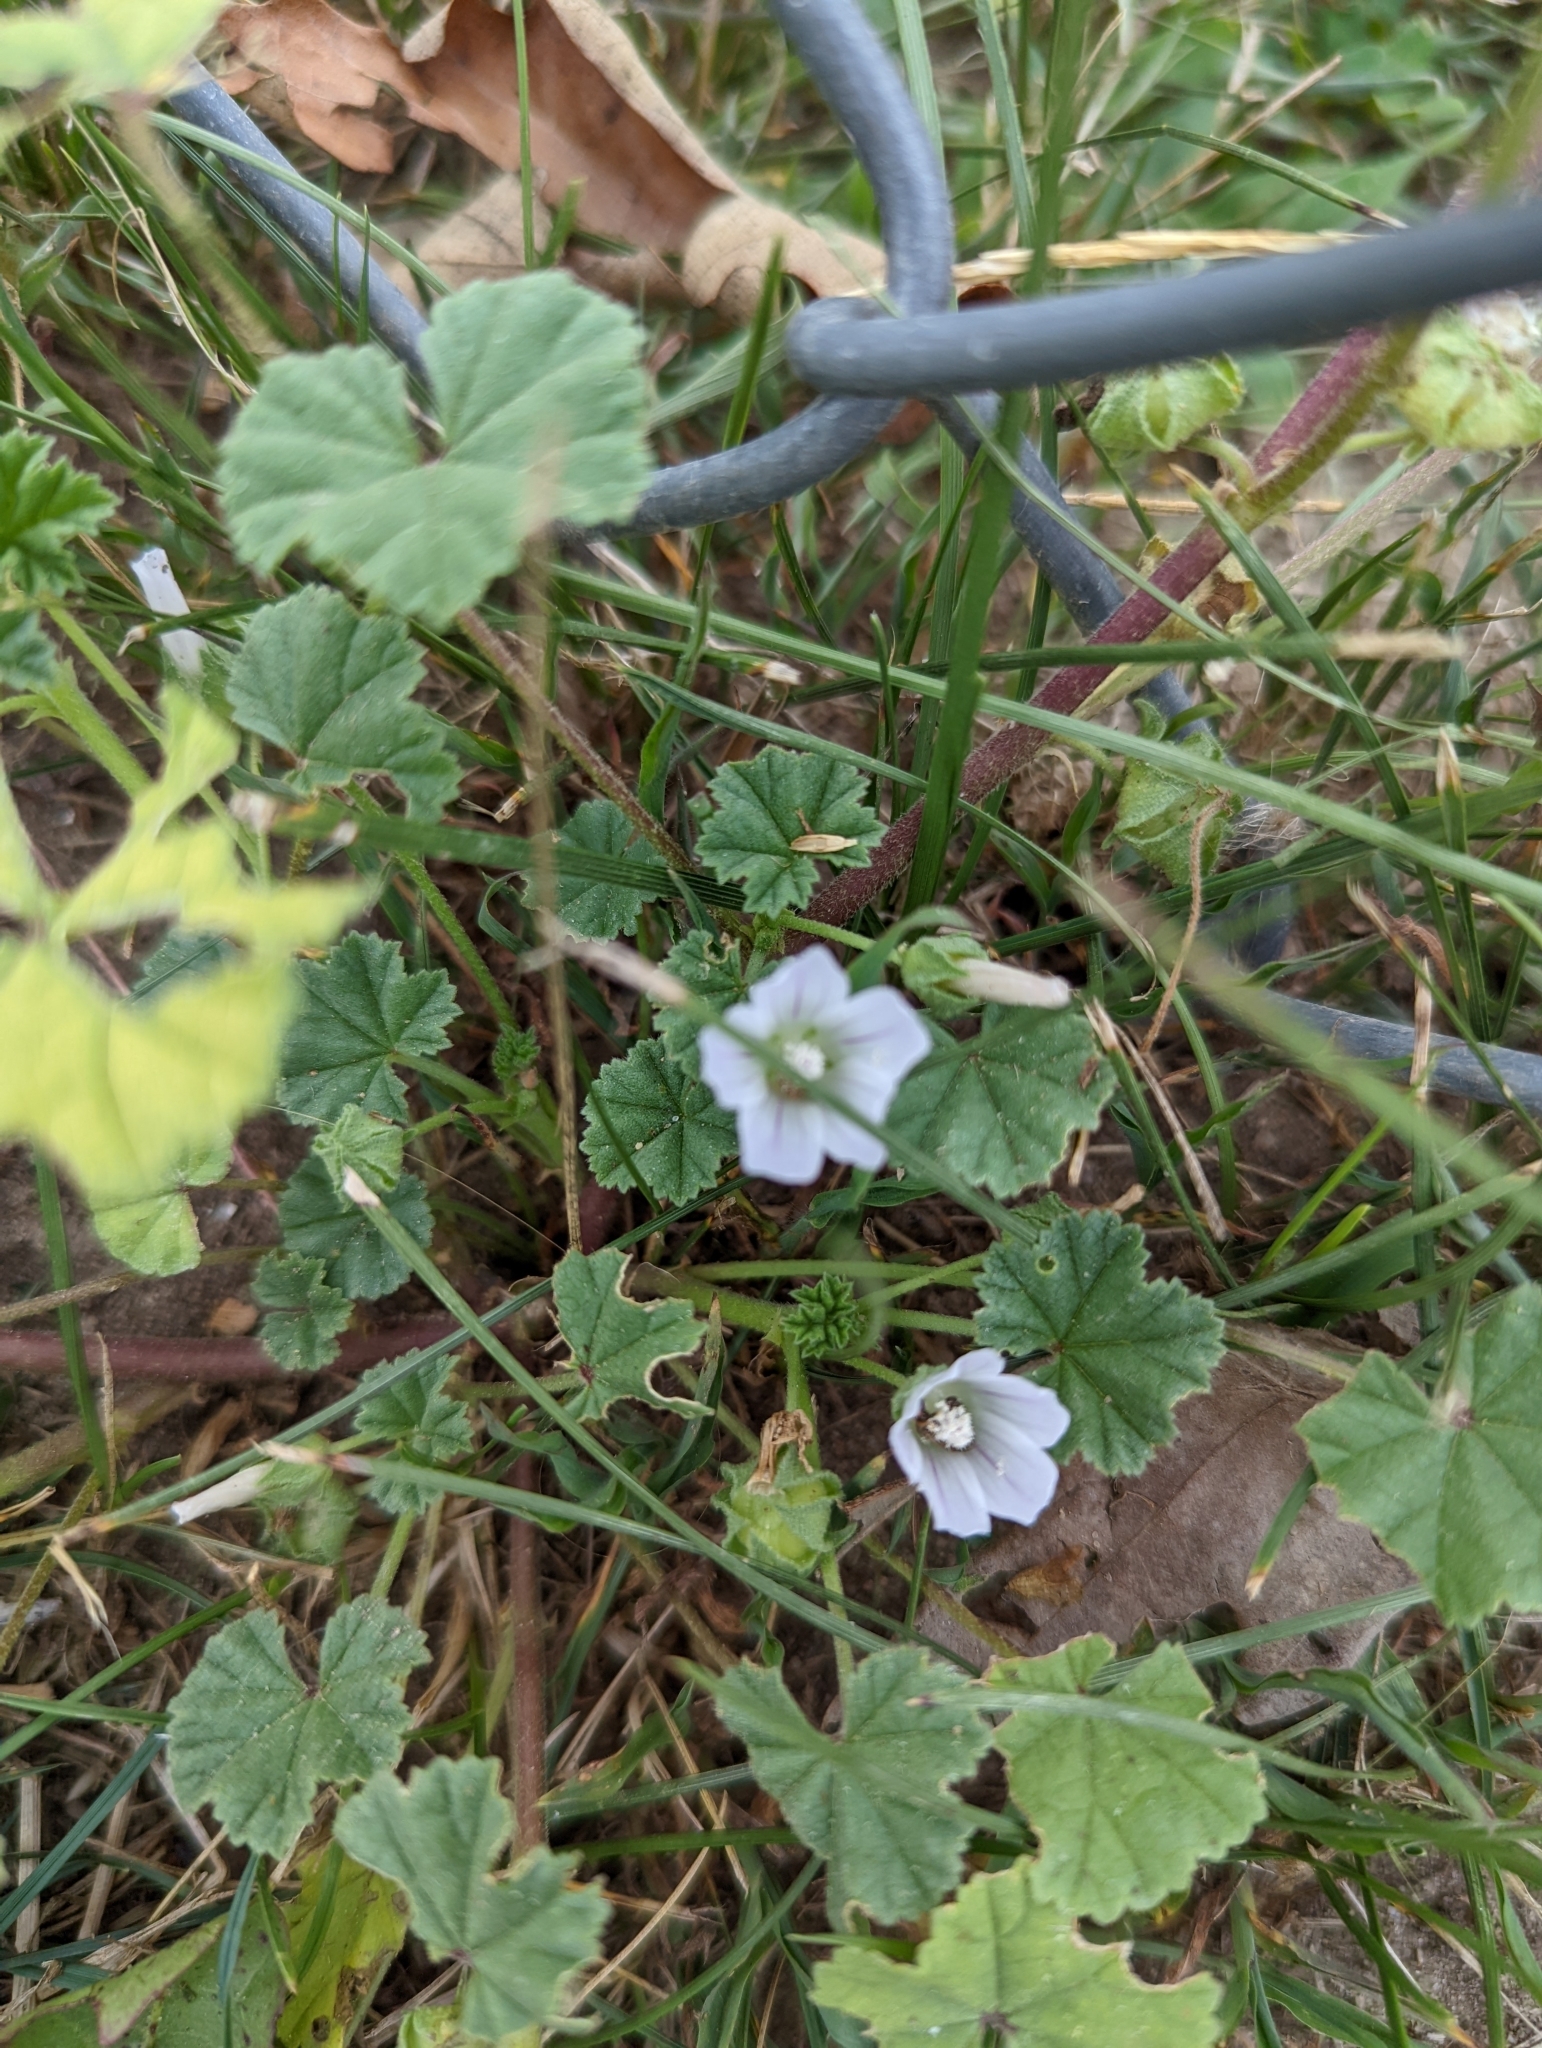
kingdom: Plantae
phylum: Tracheophyta
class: Magnoliopsida
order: Malvales
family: Malvaceae
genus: Malva
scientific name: Malva neglecta
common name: Common mallow
